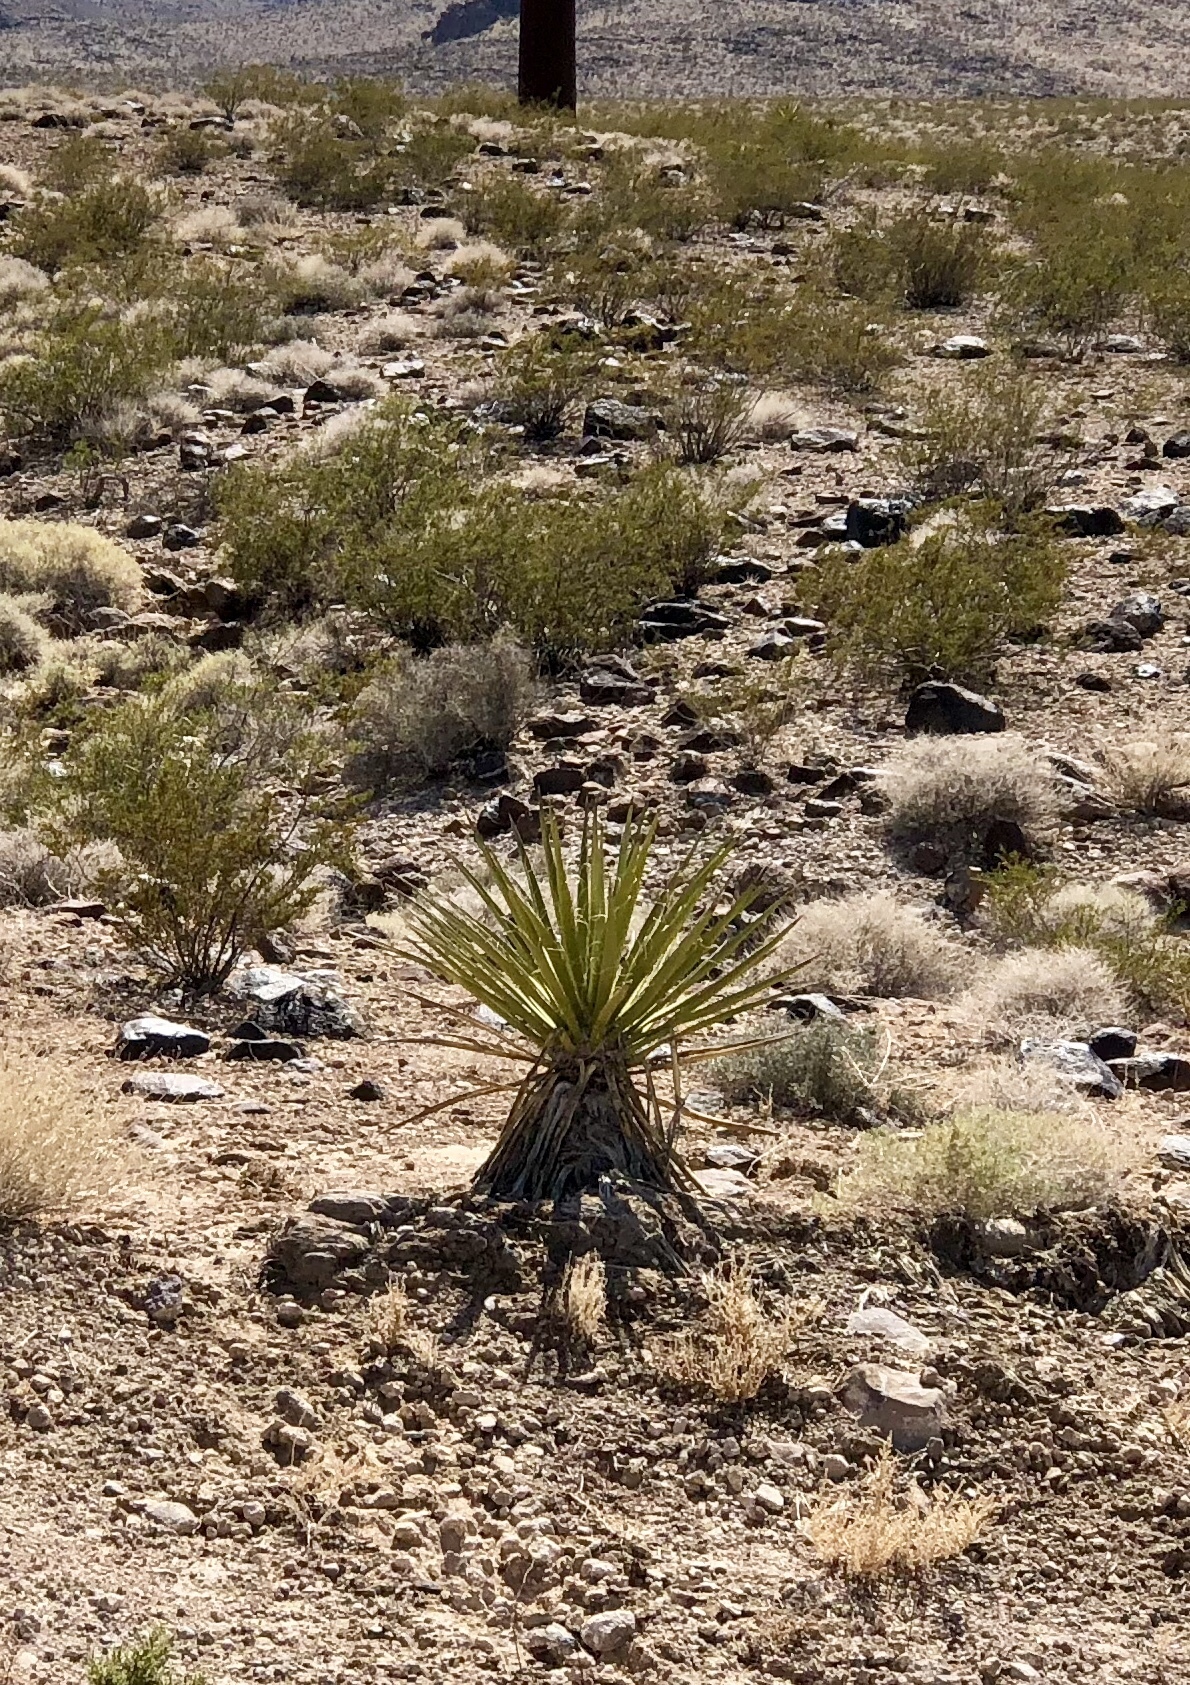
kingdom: Plantae
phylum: Tracheophyta
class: Liliopsida
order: Asparagales
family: Asparagaceae
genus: Yucca
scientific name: Yucca schidigera
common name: Mojave yucca
